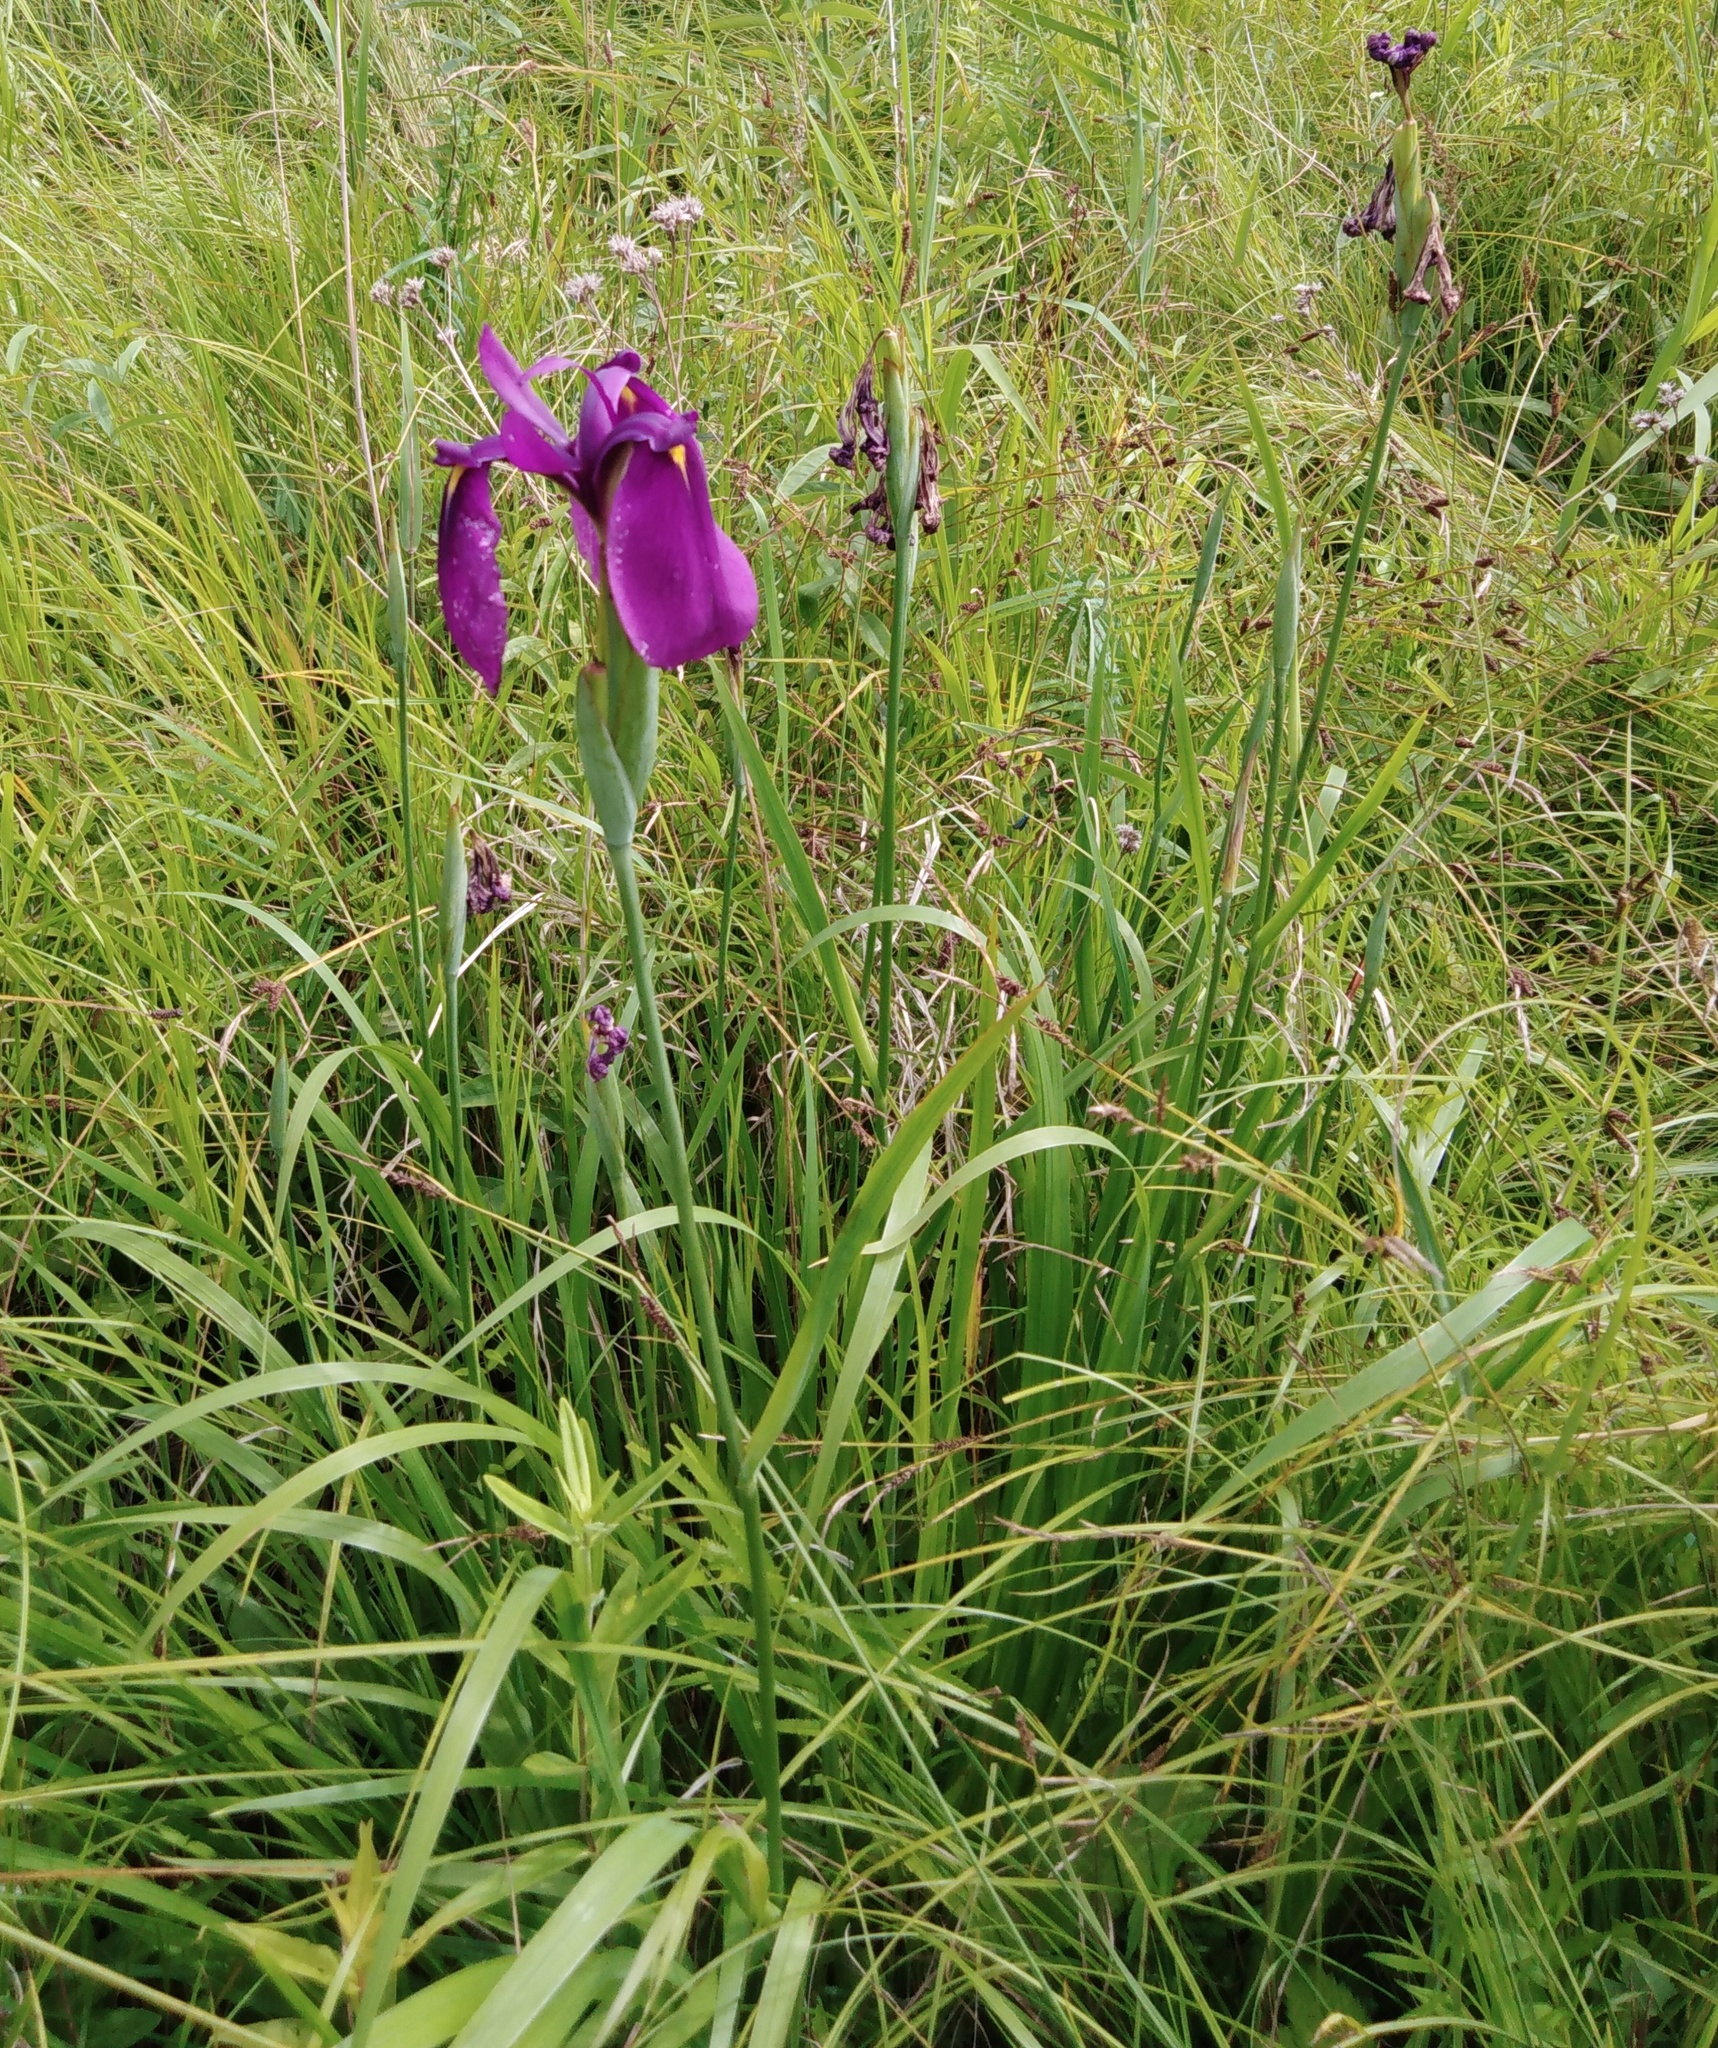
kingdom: Plantae
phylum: Tracheophyta
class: Liliopsida
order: Asparagales
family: Iridaceae
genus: Iris
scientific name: Iris ensata
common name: Beaked iris
